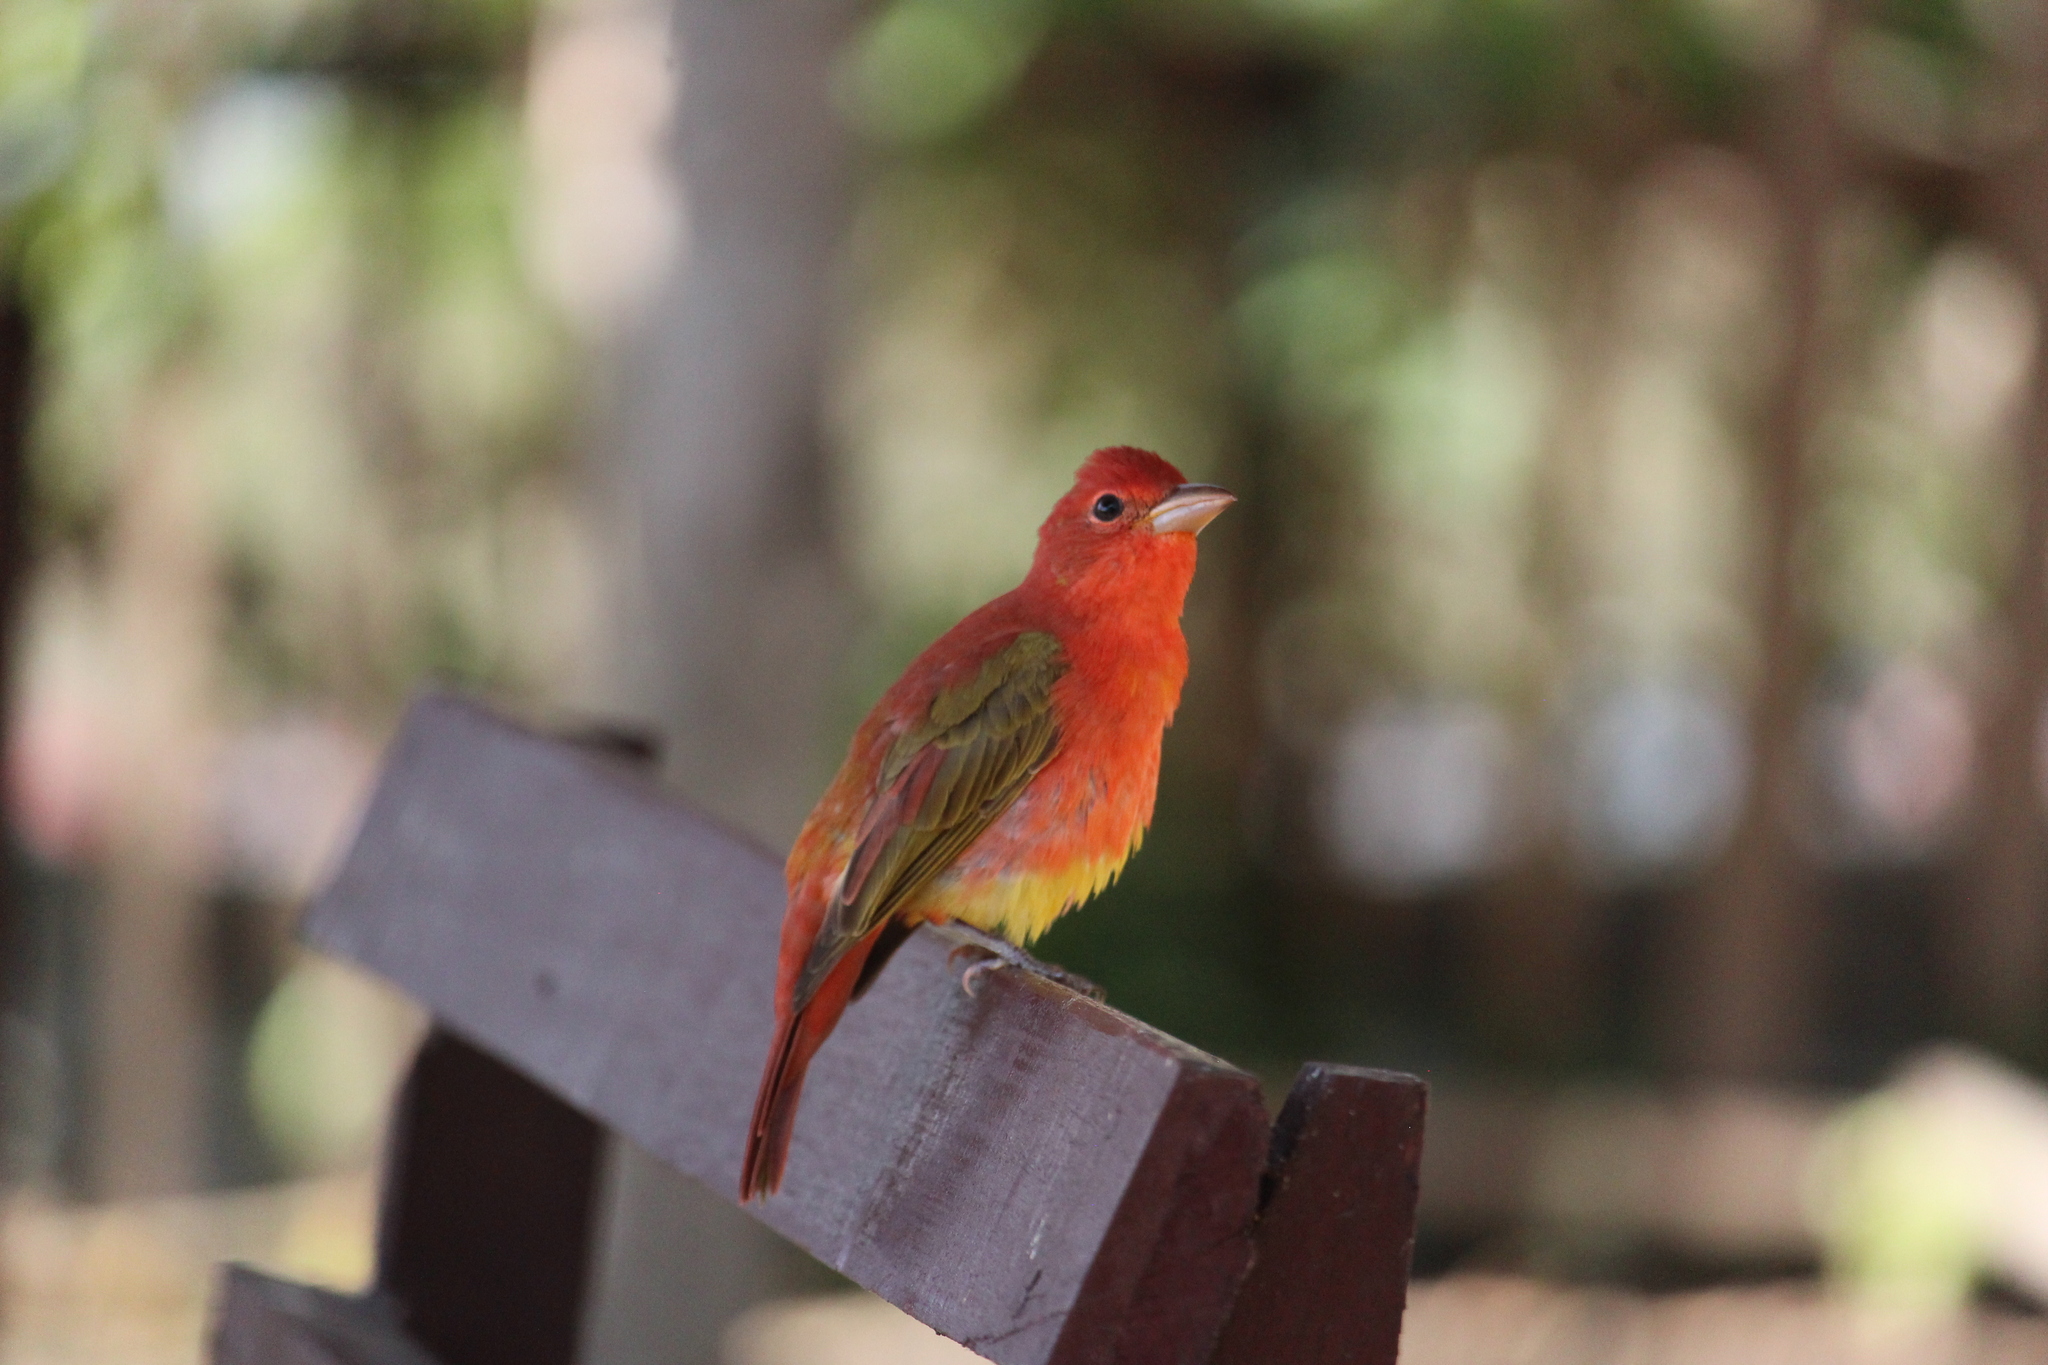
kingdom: Animalia
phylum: Chordata
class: Aves
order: Passeriformes
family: Cardinalidae
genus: Piranga
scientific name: Piranga rubra
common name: Summer tanager
